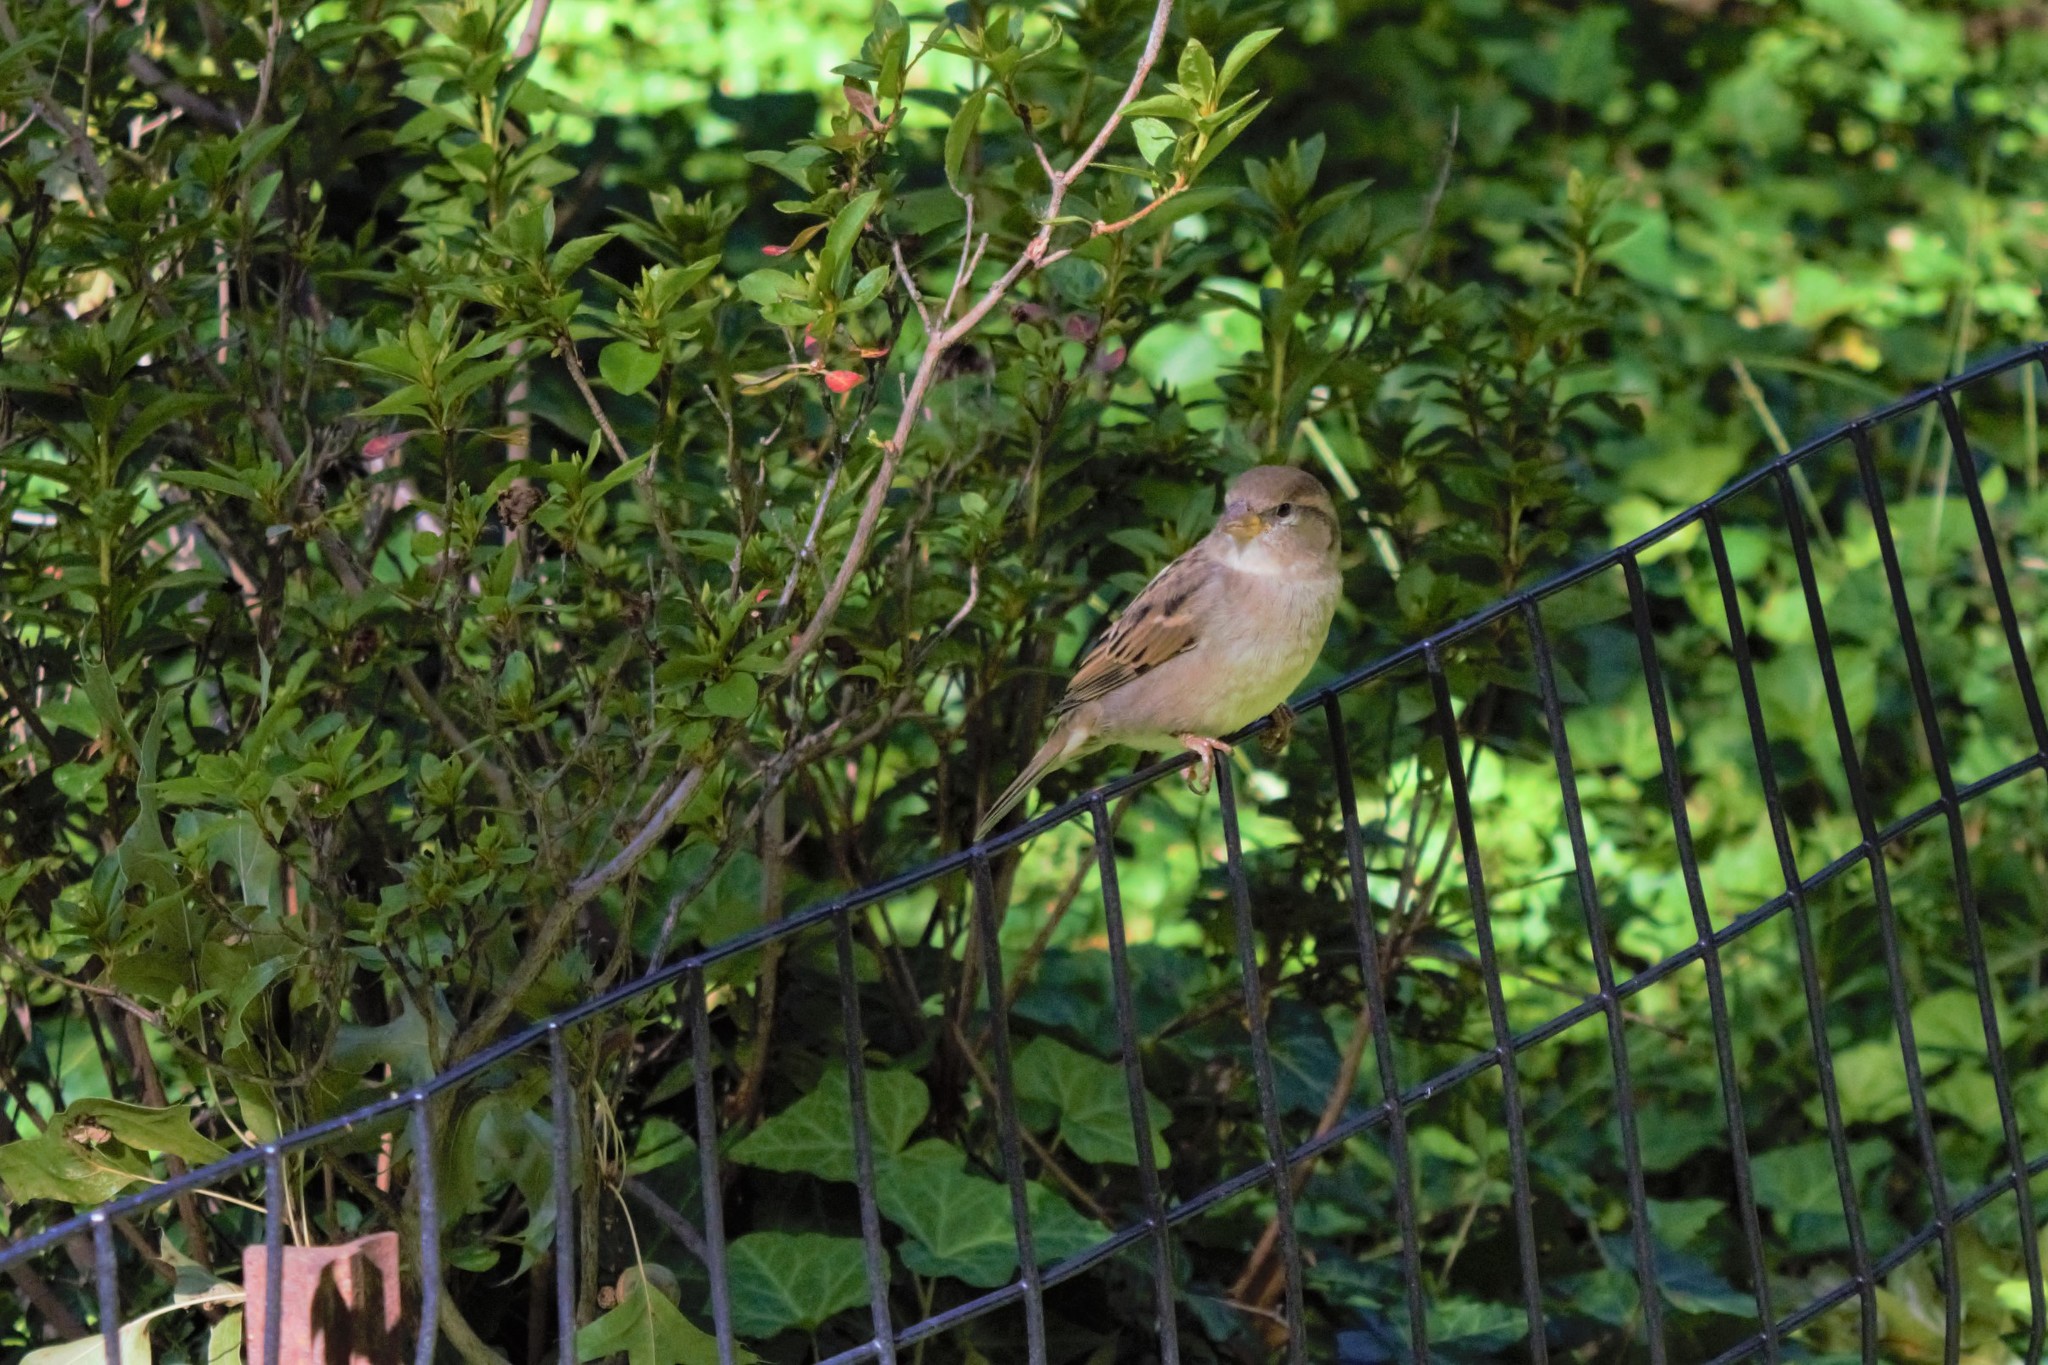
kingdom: Animalia
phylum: Chordata
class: Aves
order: Passeriformes
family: Passeridae
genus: Passer
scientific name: Passer domesticus
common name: House sparrow
